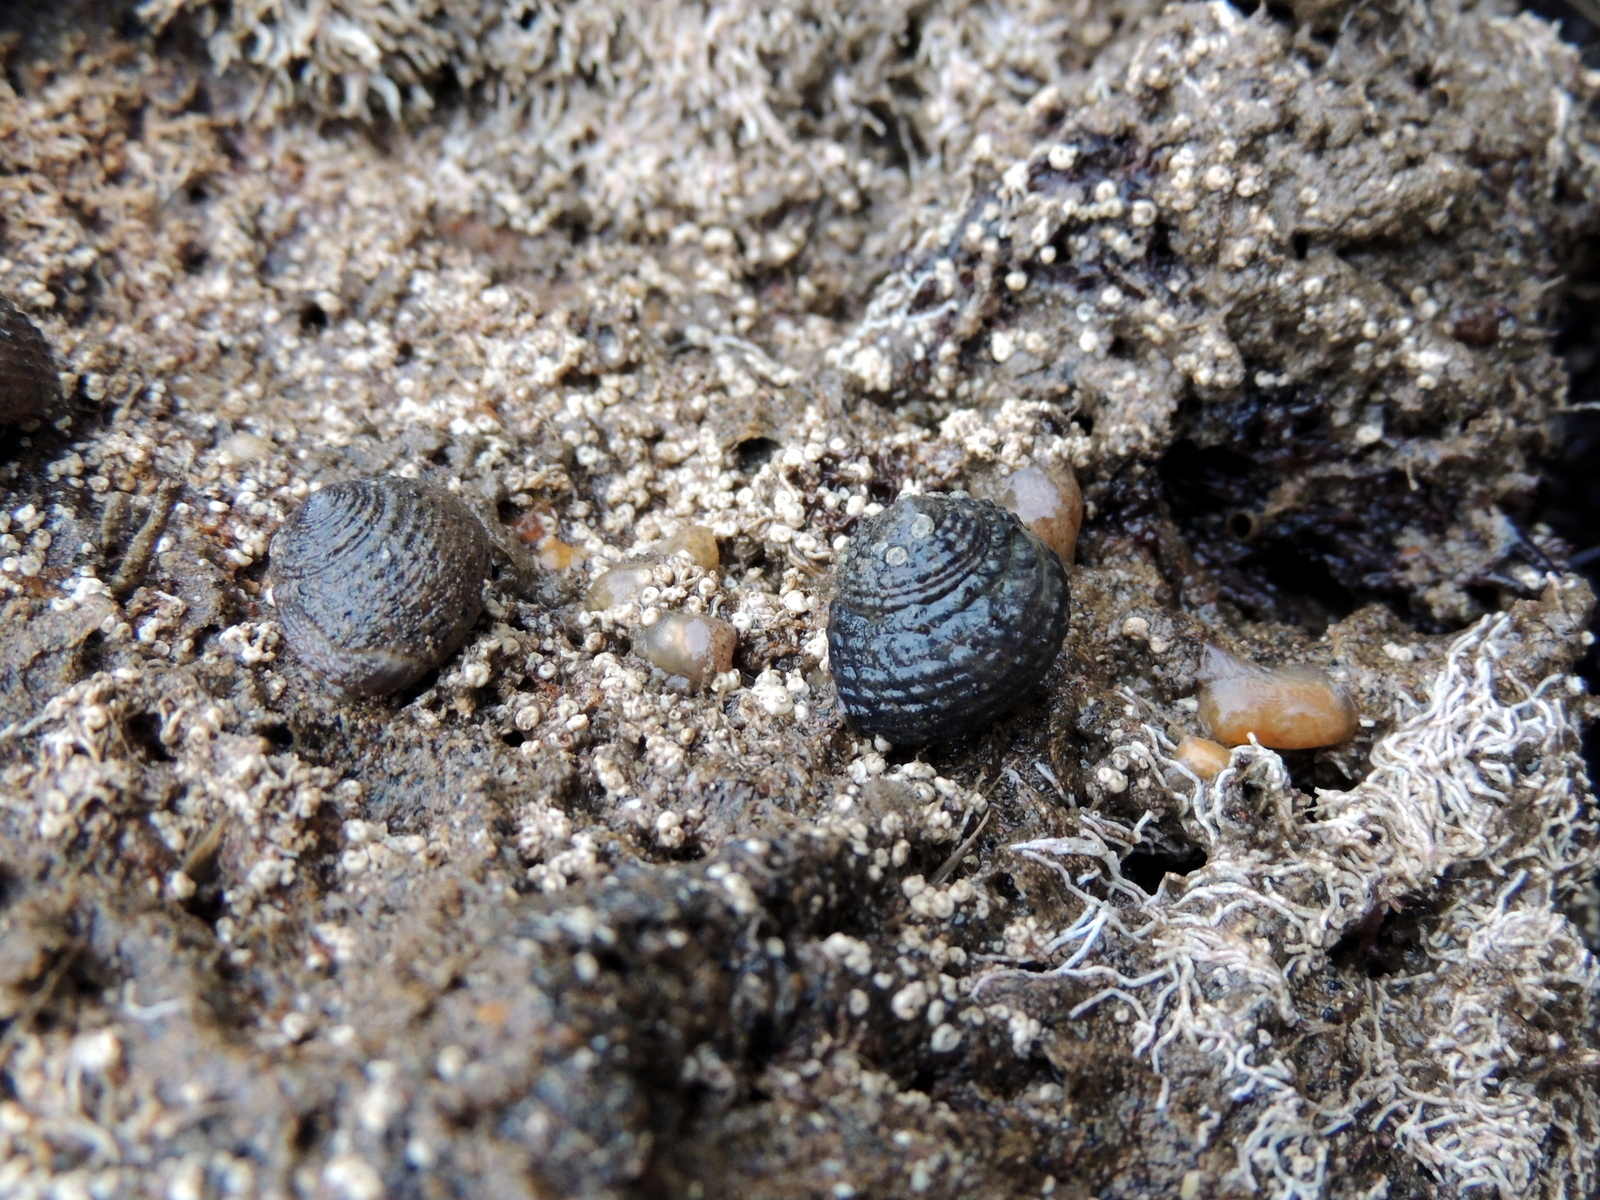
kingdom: Animalia
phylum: Mollusca
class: Gastropoda
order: Trochida
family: Tegulidae
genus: Tegula
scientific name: Tegula eiseni
